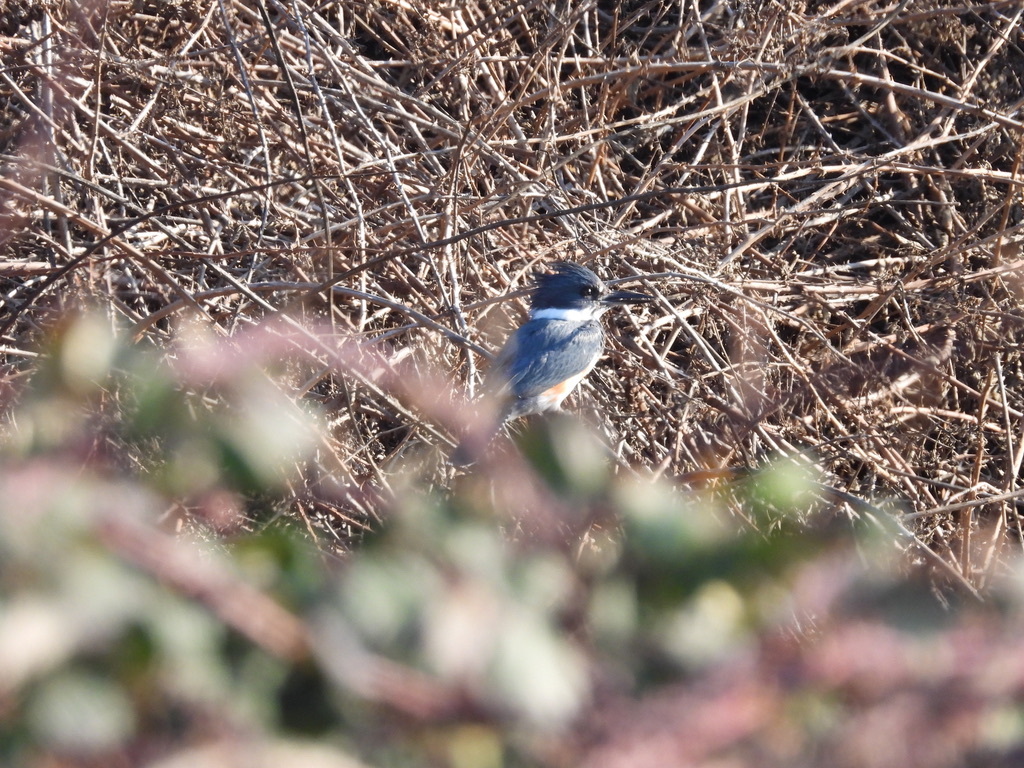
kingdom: Animalia
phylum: Chordata
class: Aves
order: Coraciiformes
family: Alcedinidae
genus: Megaceryle
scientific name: Megaceryle alcyon
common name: Belted kingfisher
